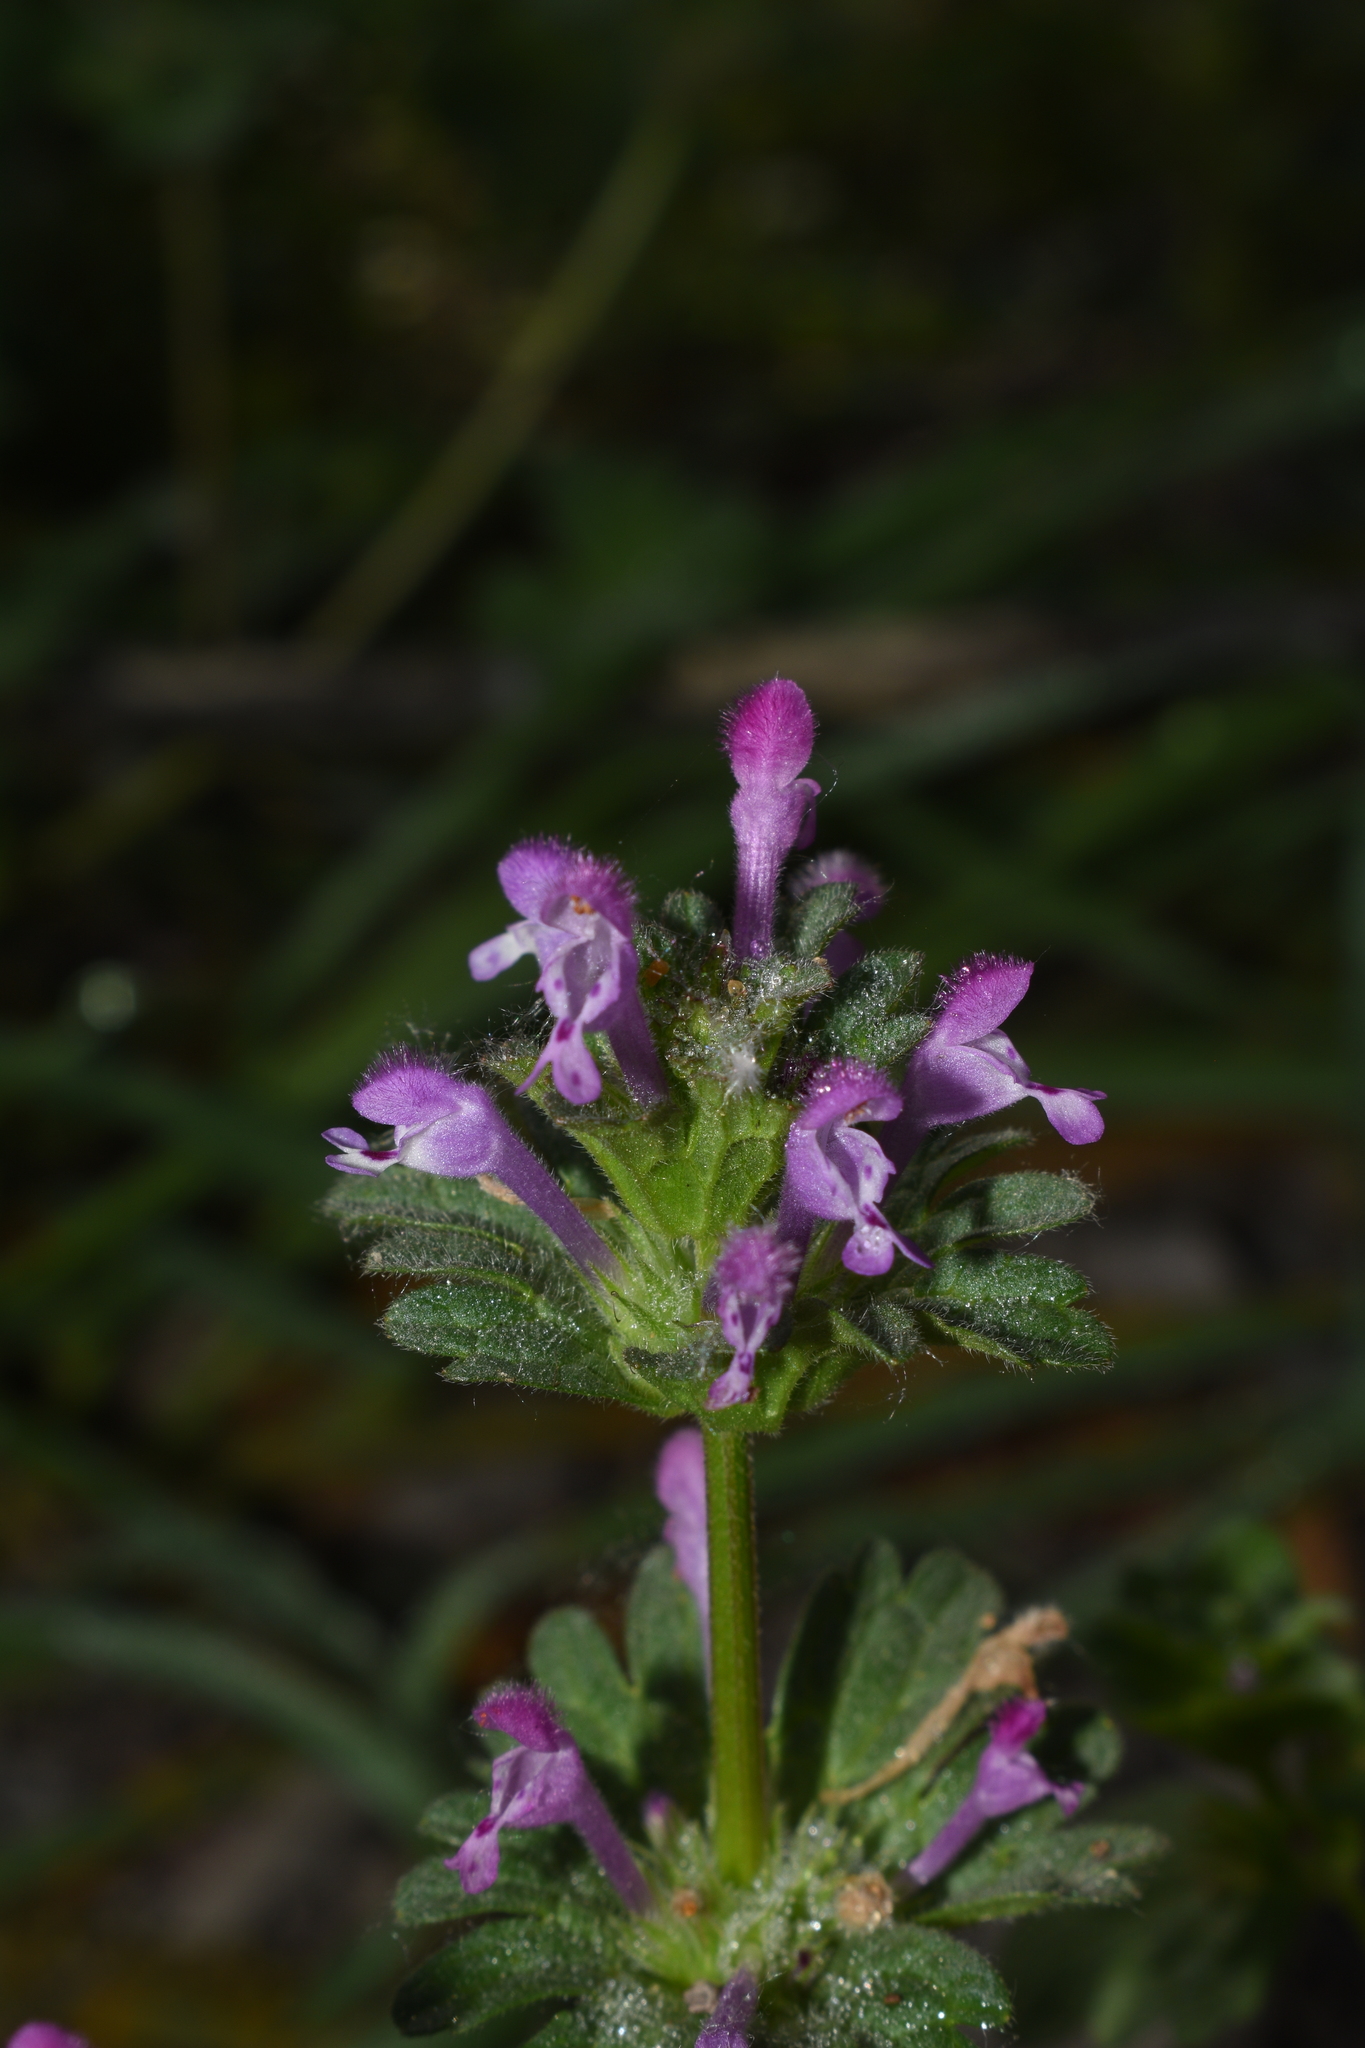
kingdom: Plantae
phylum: Tracheophyta
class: Magnoliopsida
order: Lamiales
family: Lamiaceae
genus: Lamium
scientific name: Lamium amplexicaule
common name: Henbit dead-nettle
